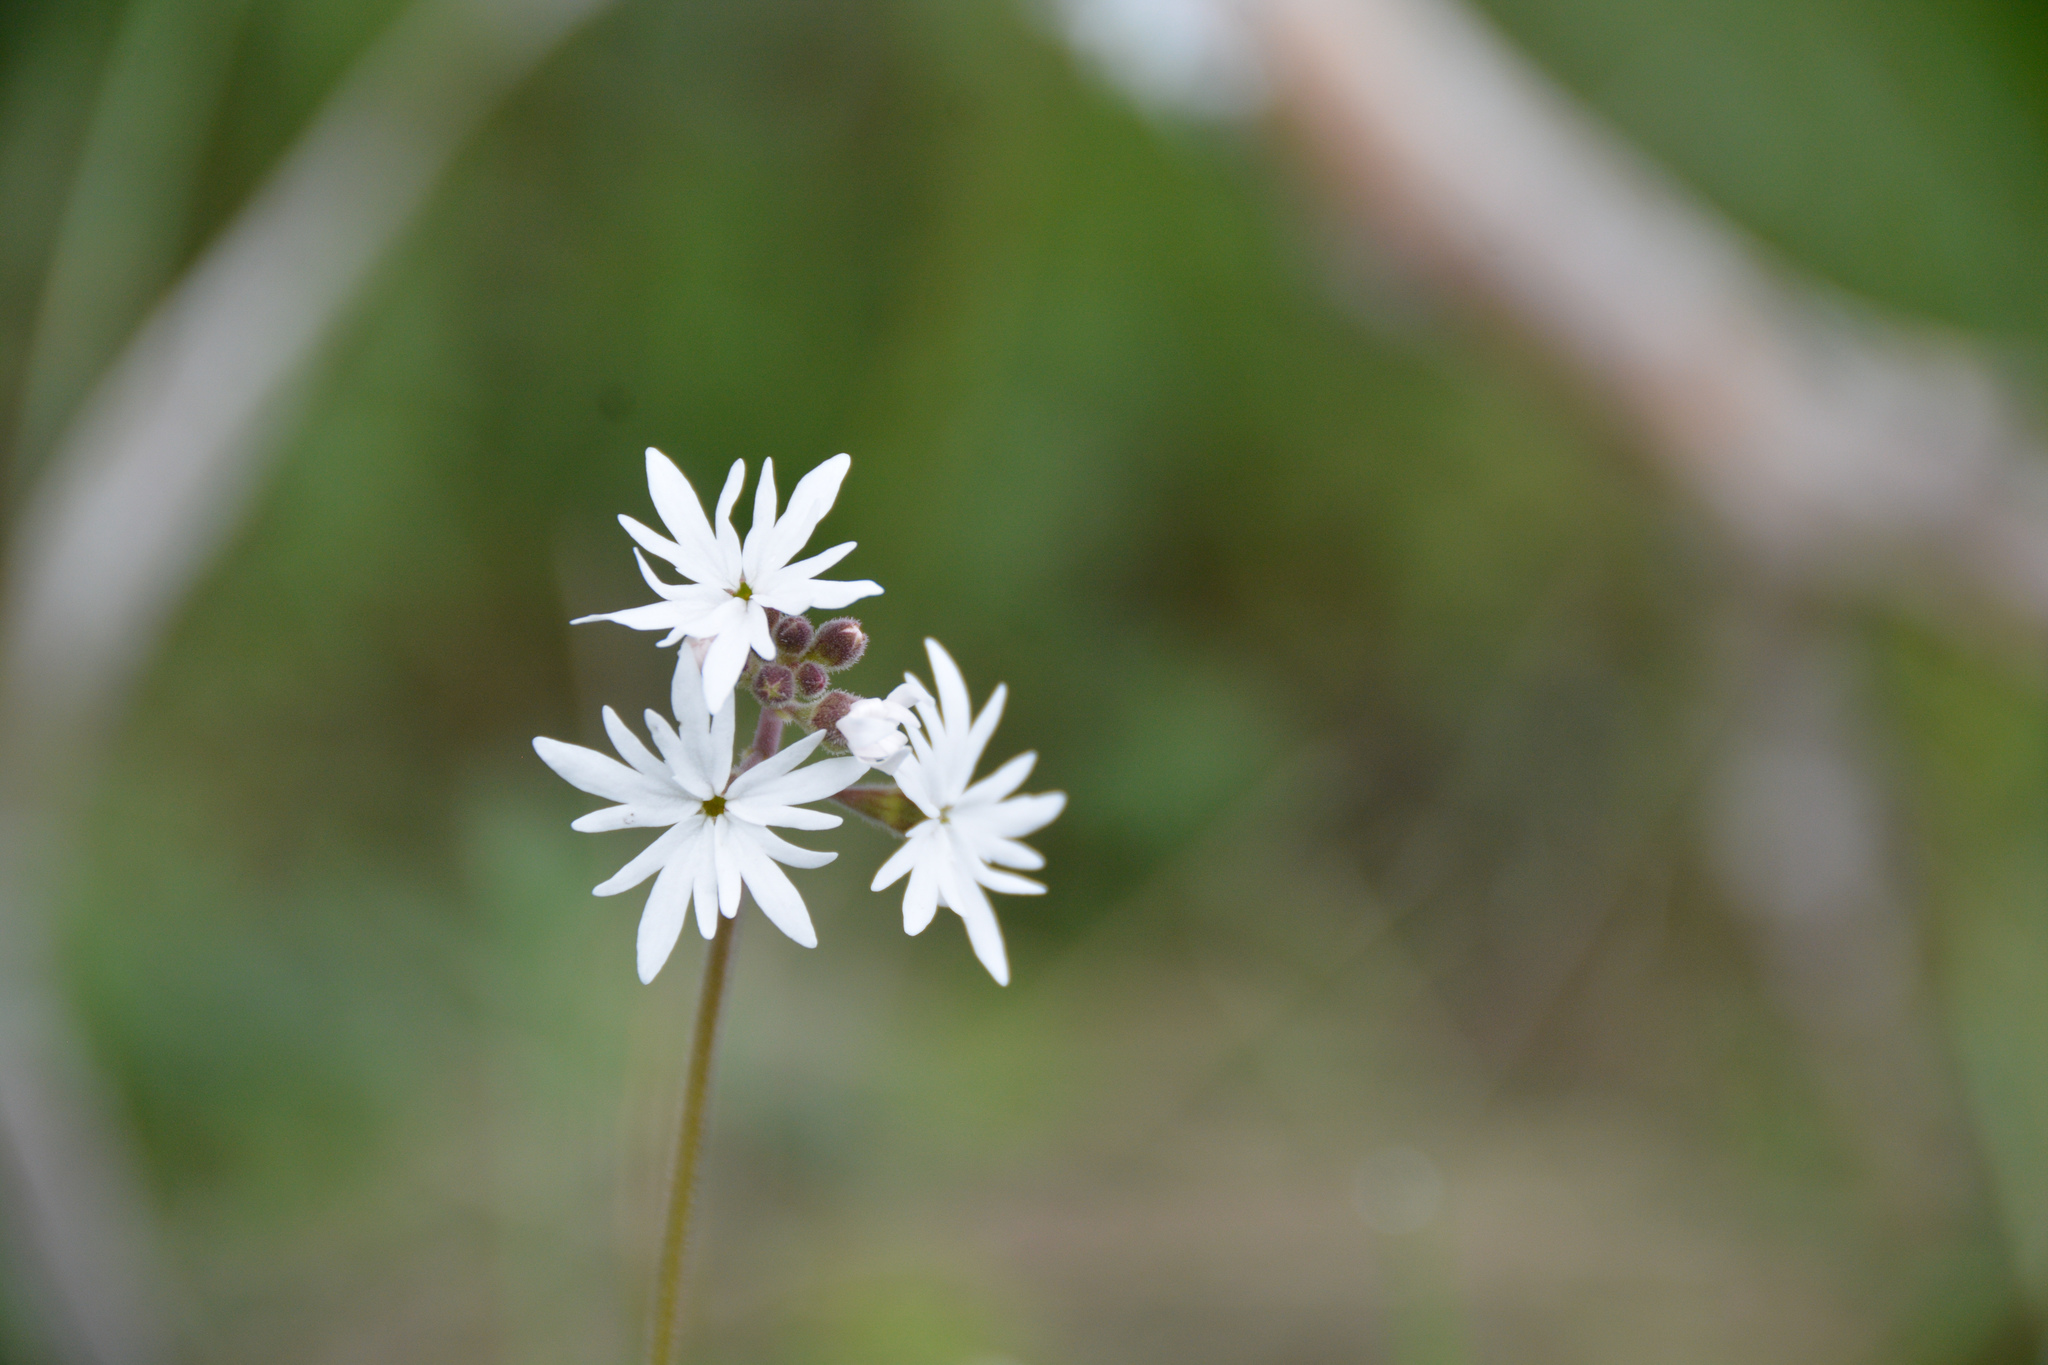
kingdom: Plantae
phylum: Tracheophyta
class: Magnoliopsida
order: Saxifragales
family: Saxifragaceae
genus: Lithophragma
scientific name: Lithophragma parviflorum
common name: Small-flowered fringe-cup
